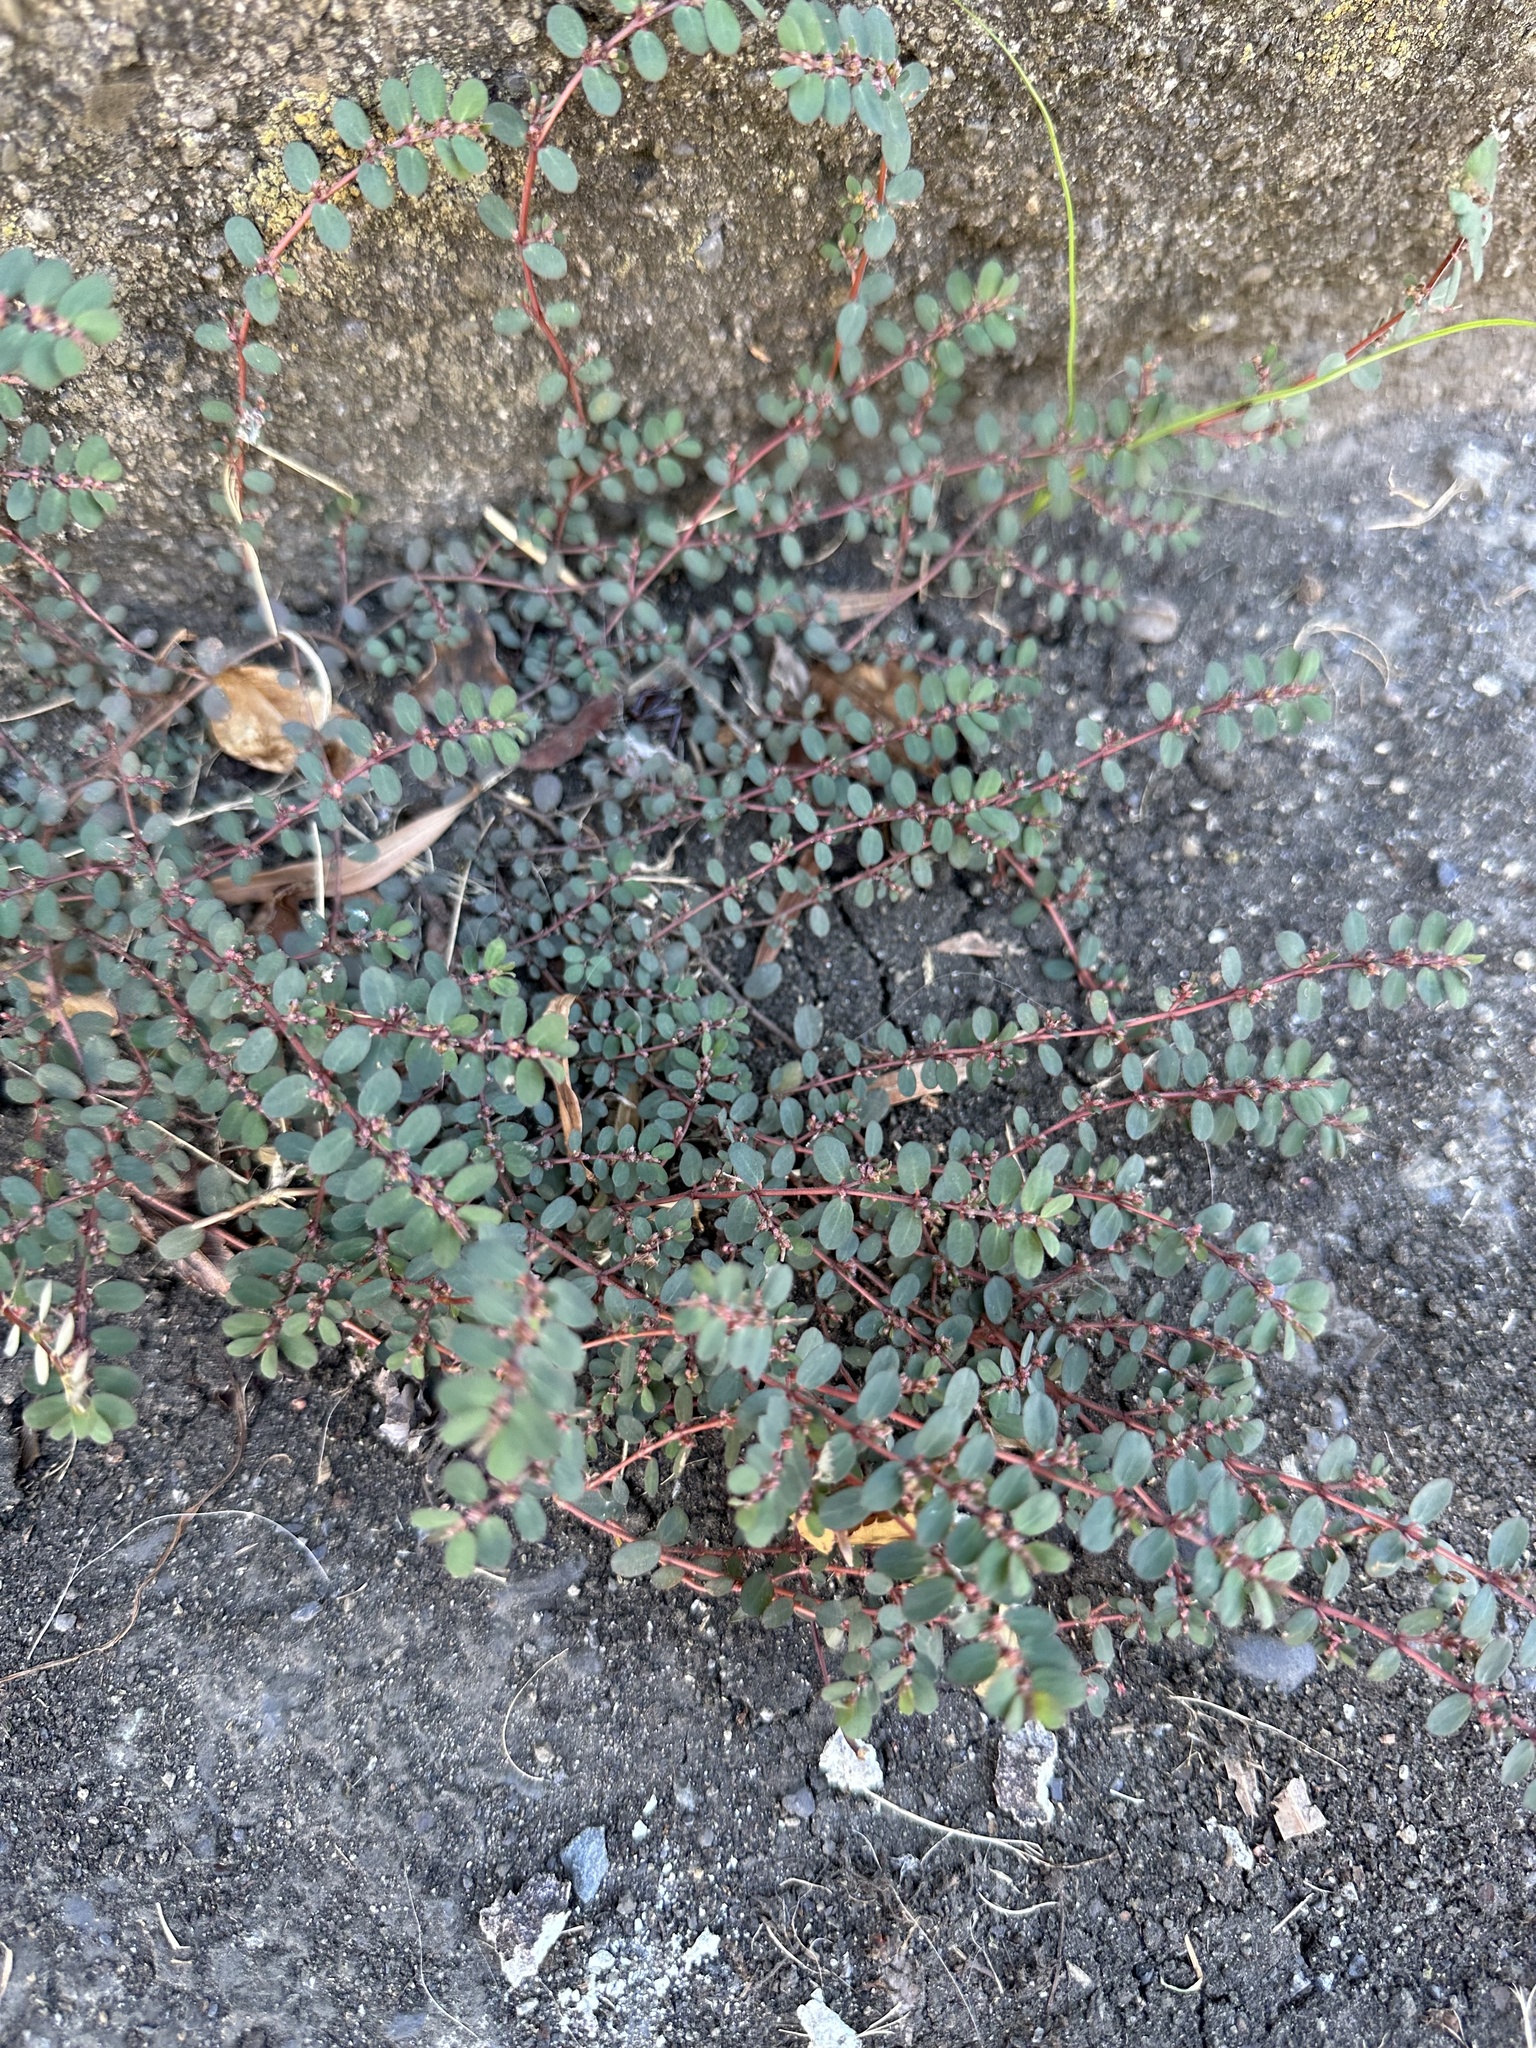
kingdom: Plantae
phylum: Tracheophyta
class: Magnoliopsida
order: Malpighiales
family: Euphorbiaceae
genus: Euphorbia
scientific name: Euphorbia prostrata
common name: Prostrate sandmat
